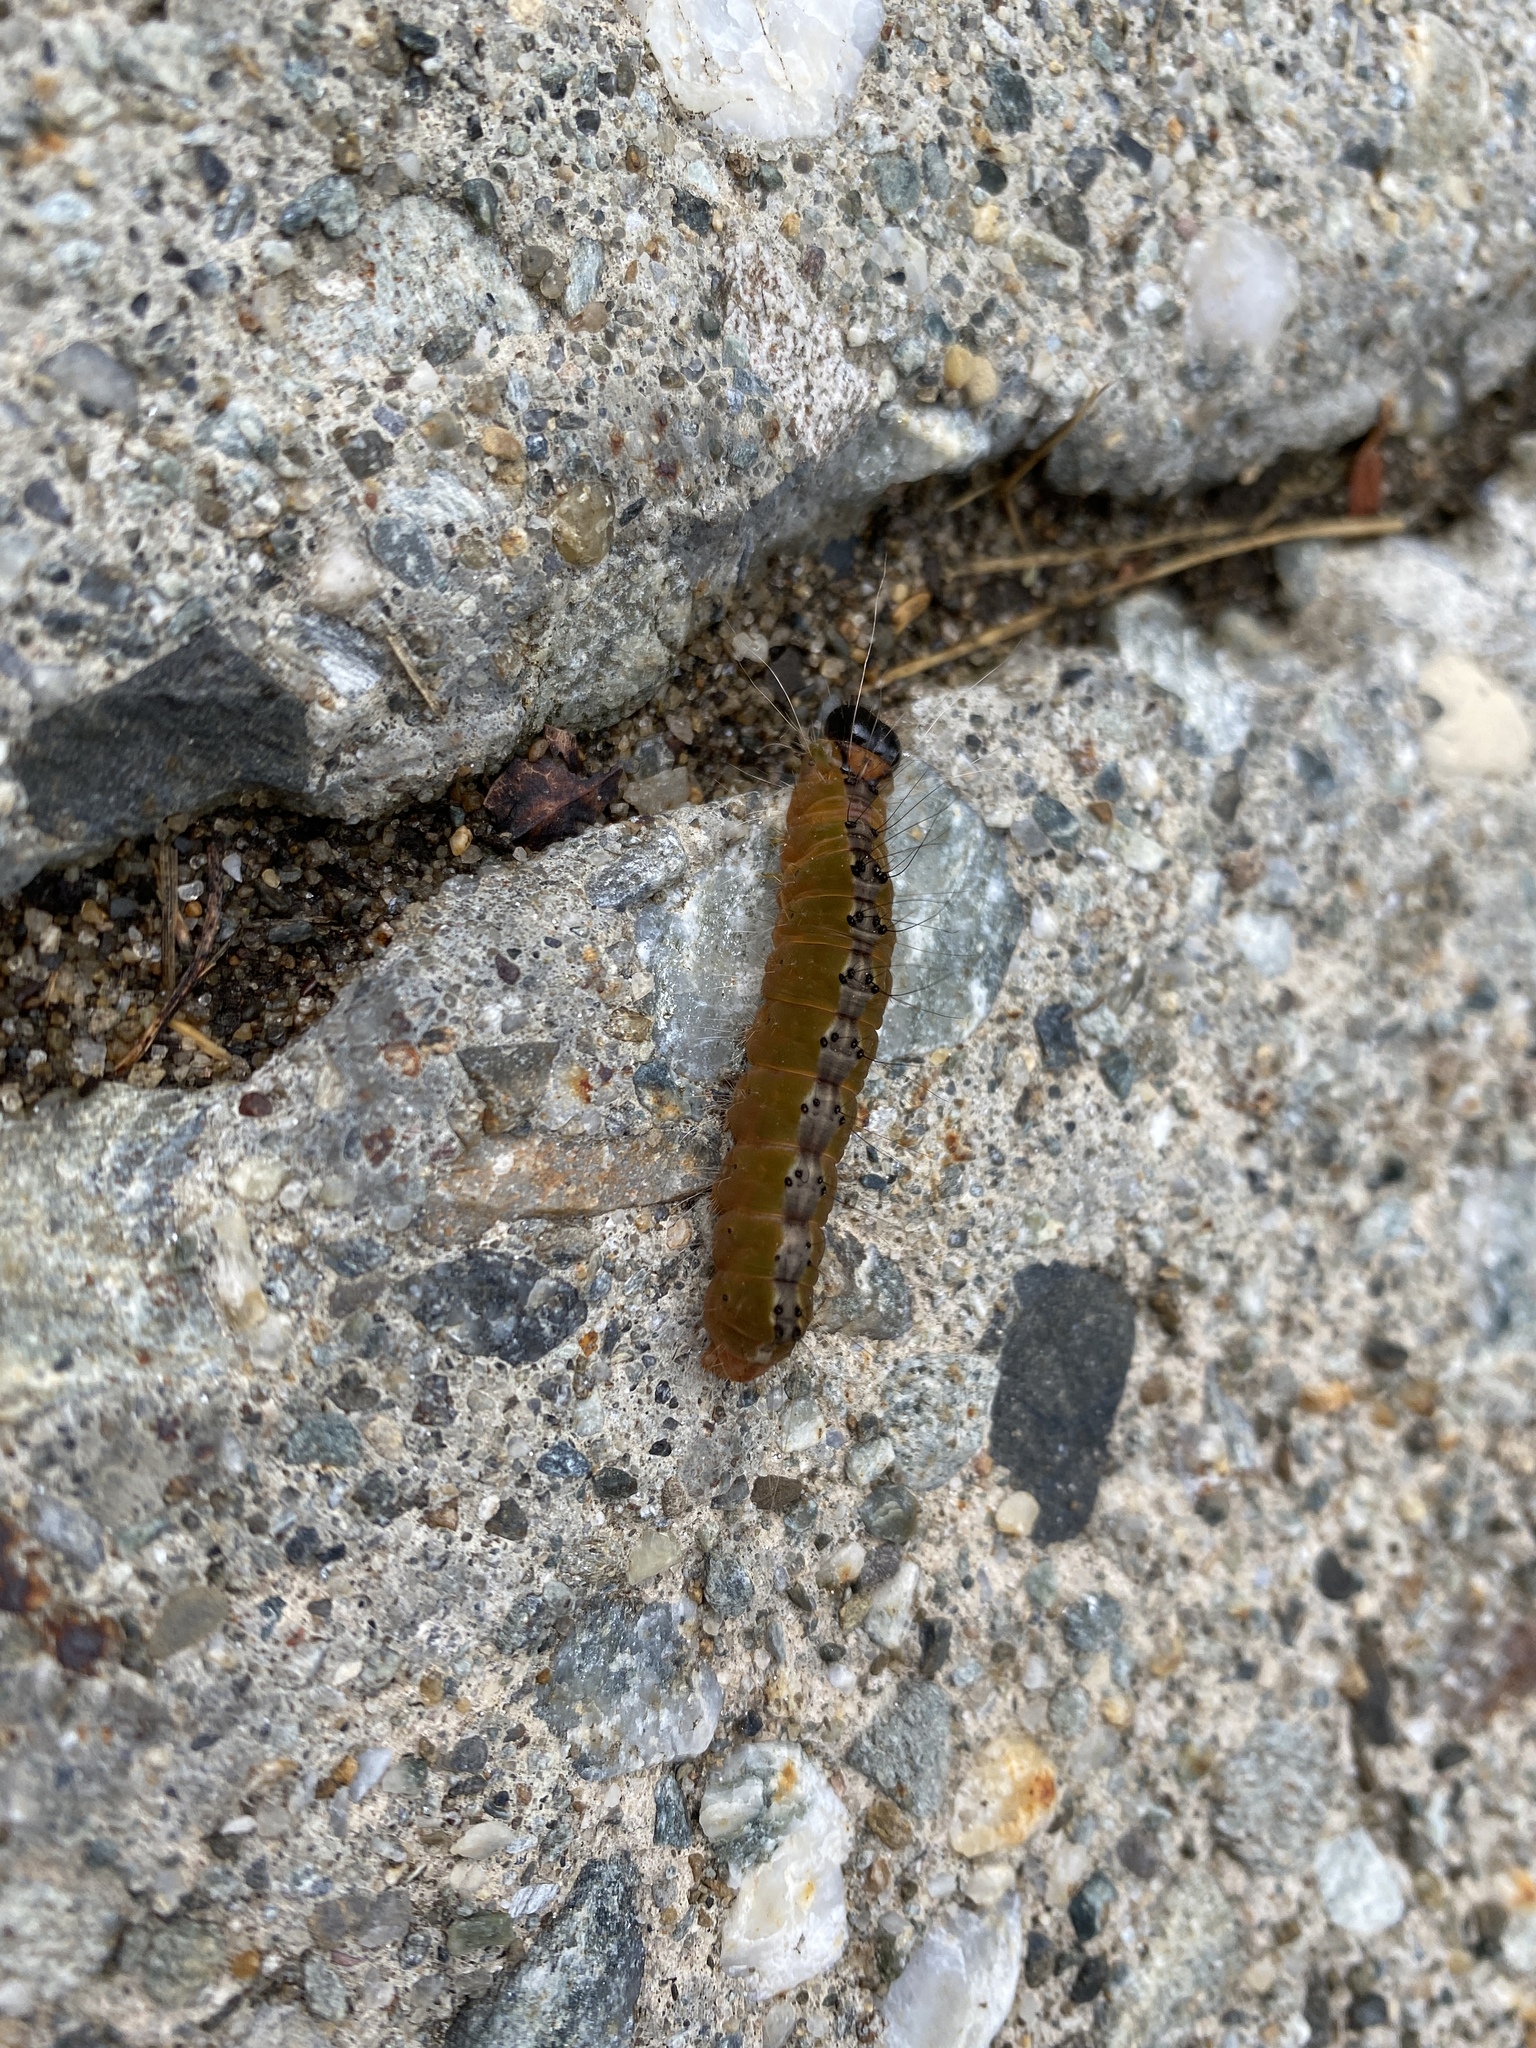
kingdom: Animalia
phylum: Arthropoda
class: Insecta
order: Lepidoptera
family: Noctuidae
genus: Acronicta
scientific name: Acronicta superans
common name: Splendid dagger
